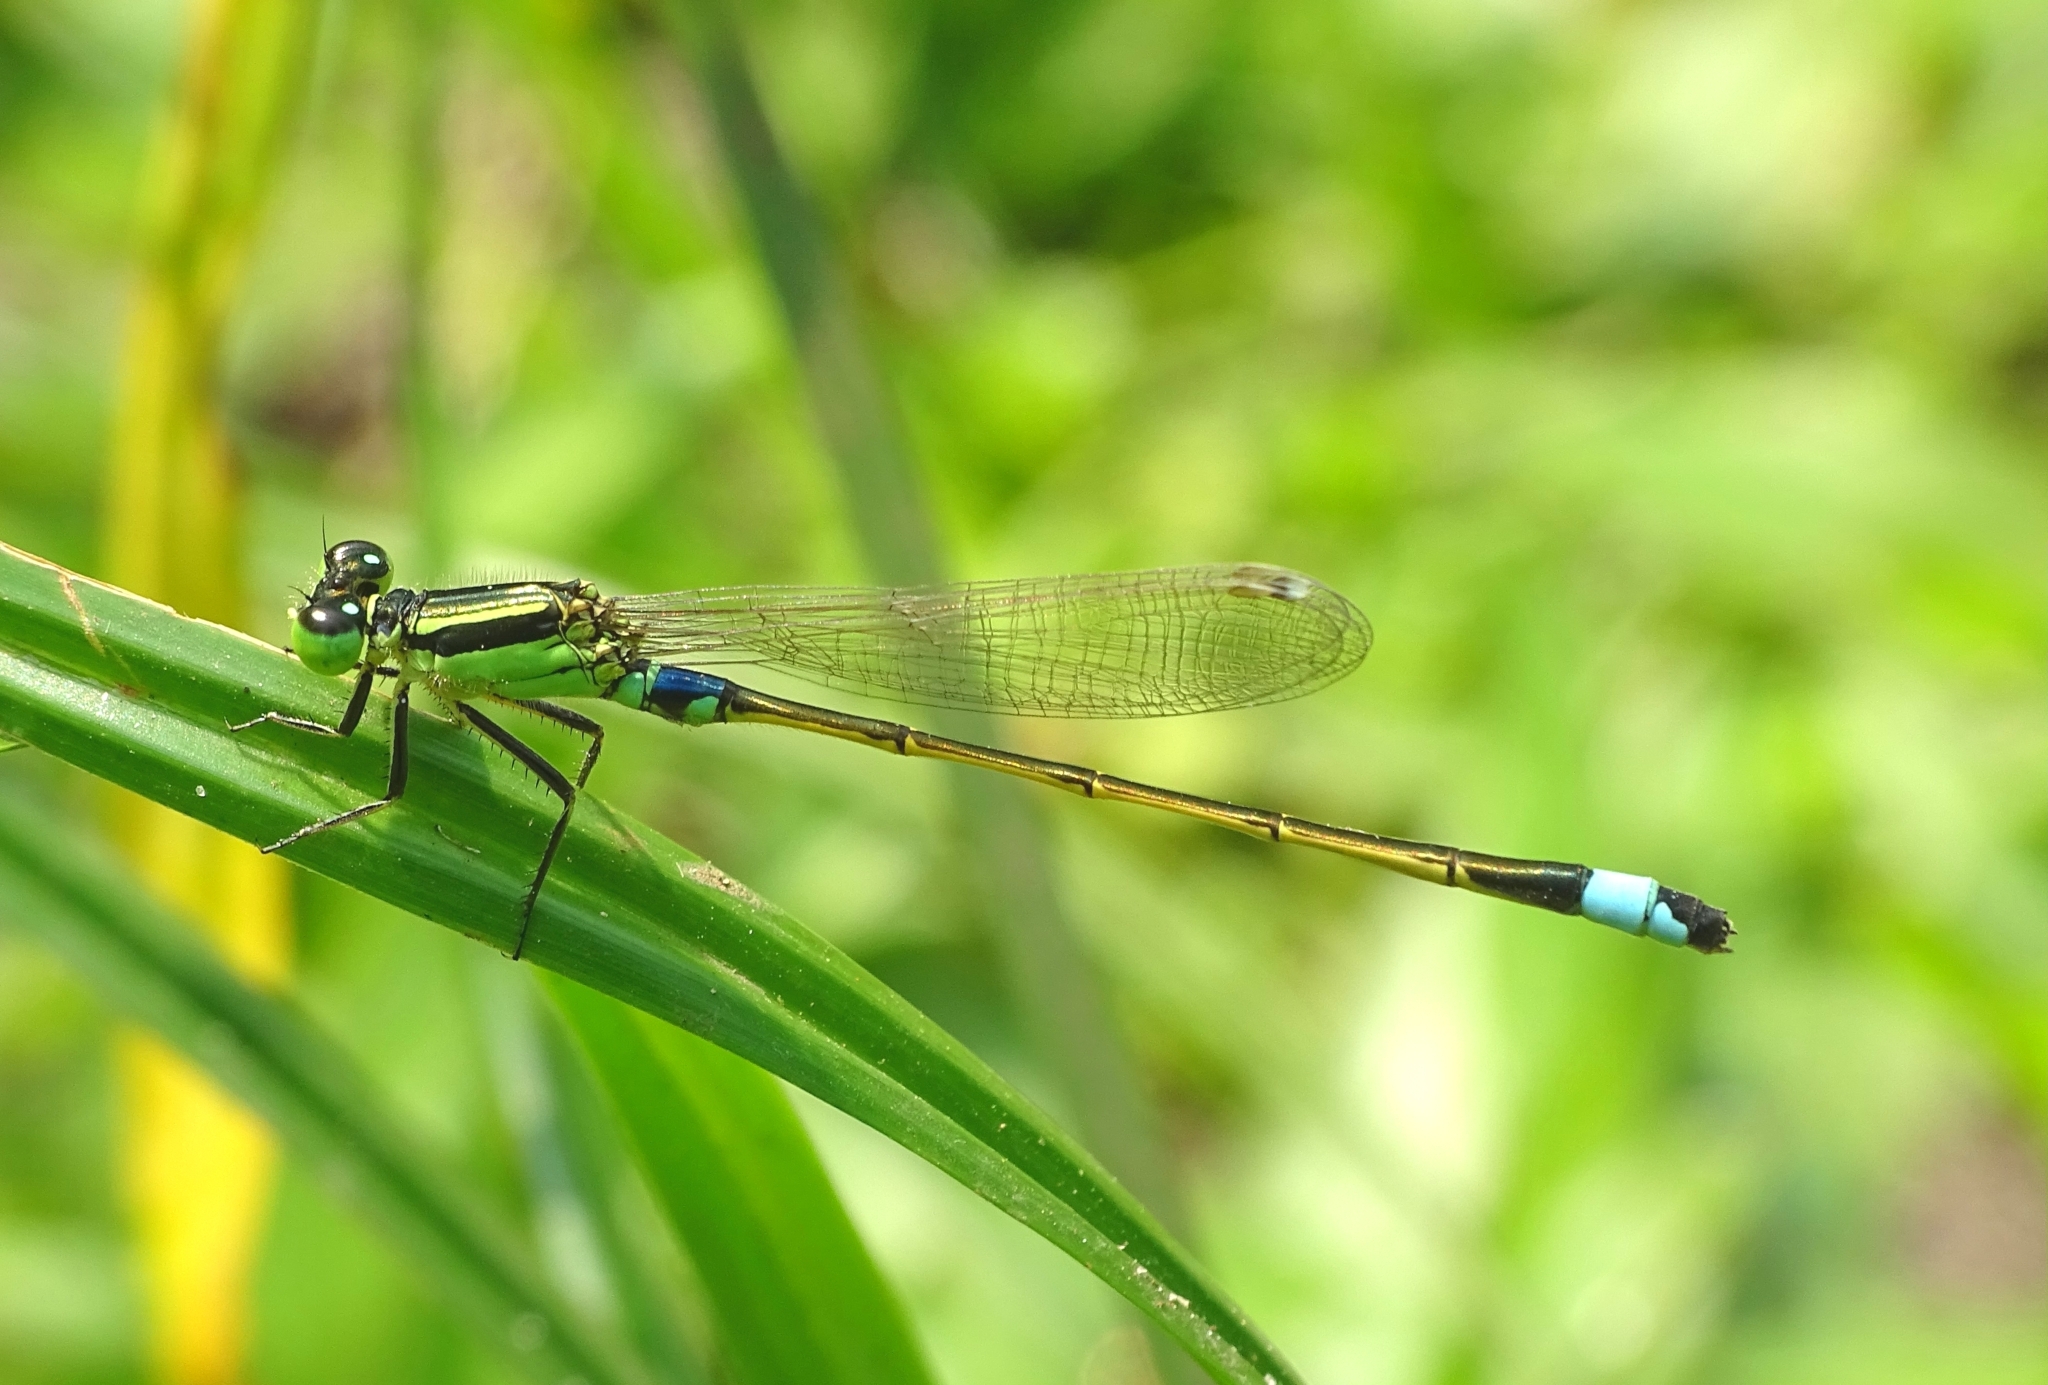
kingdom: Animalia
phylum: Arthropoda
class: Insecta
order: Odonata
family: Coenagrionidae
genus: Ischnura
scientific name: Ischnura senegalensis
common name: Tropical bluetail
